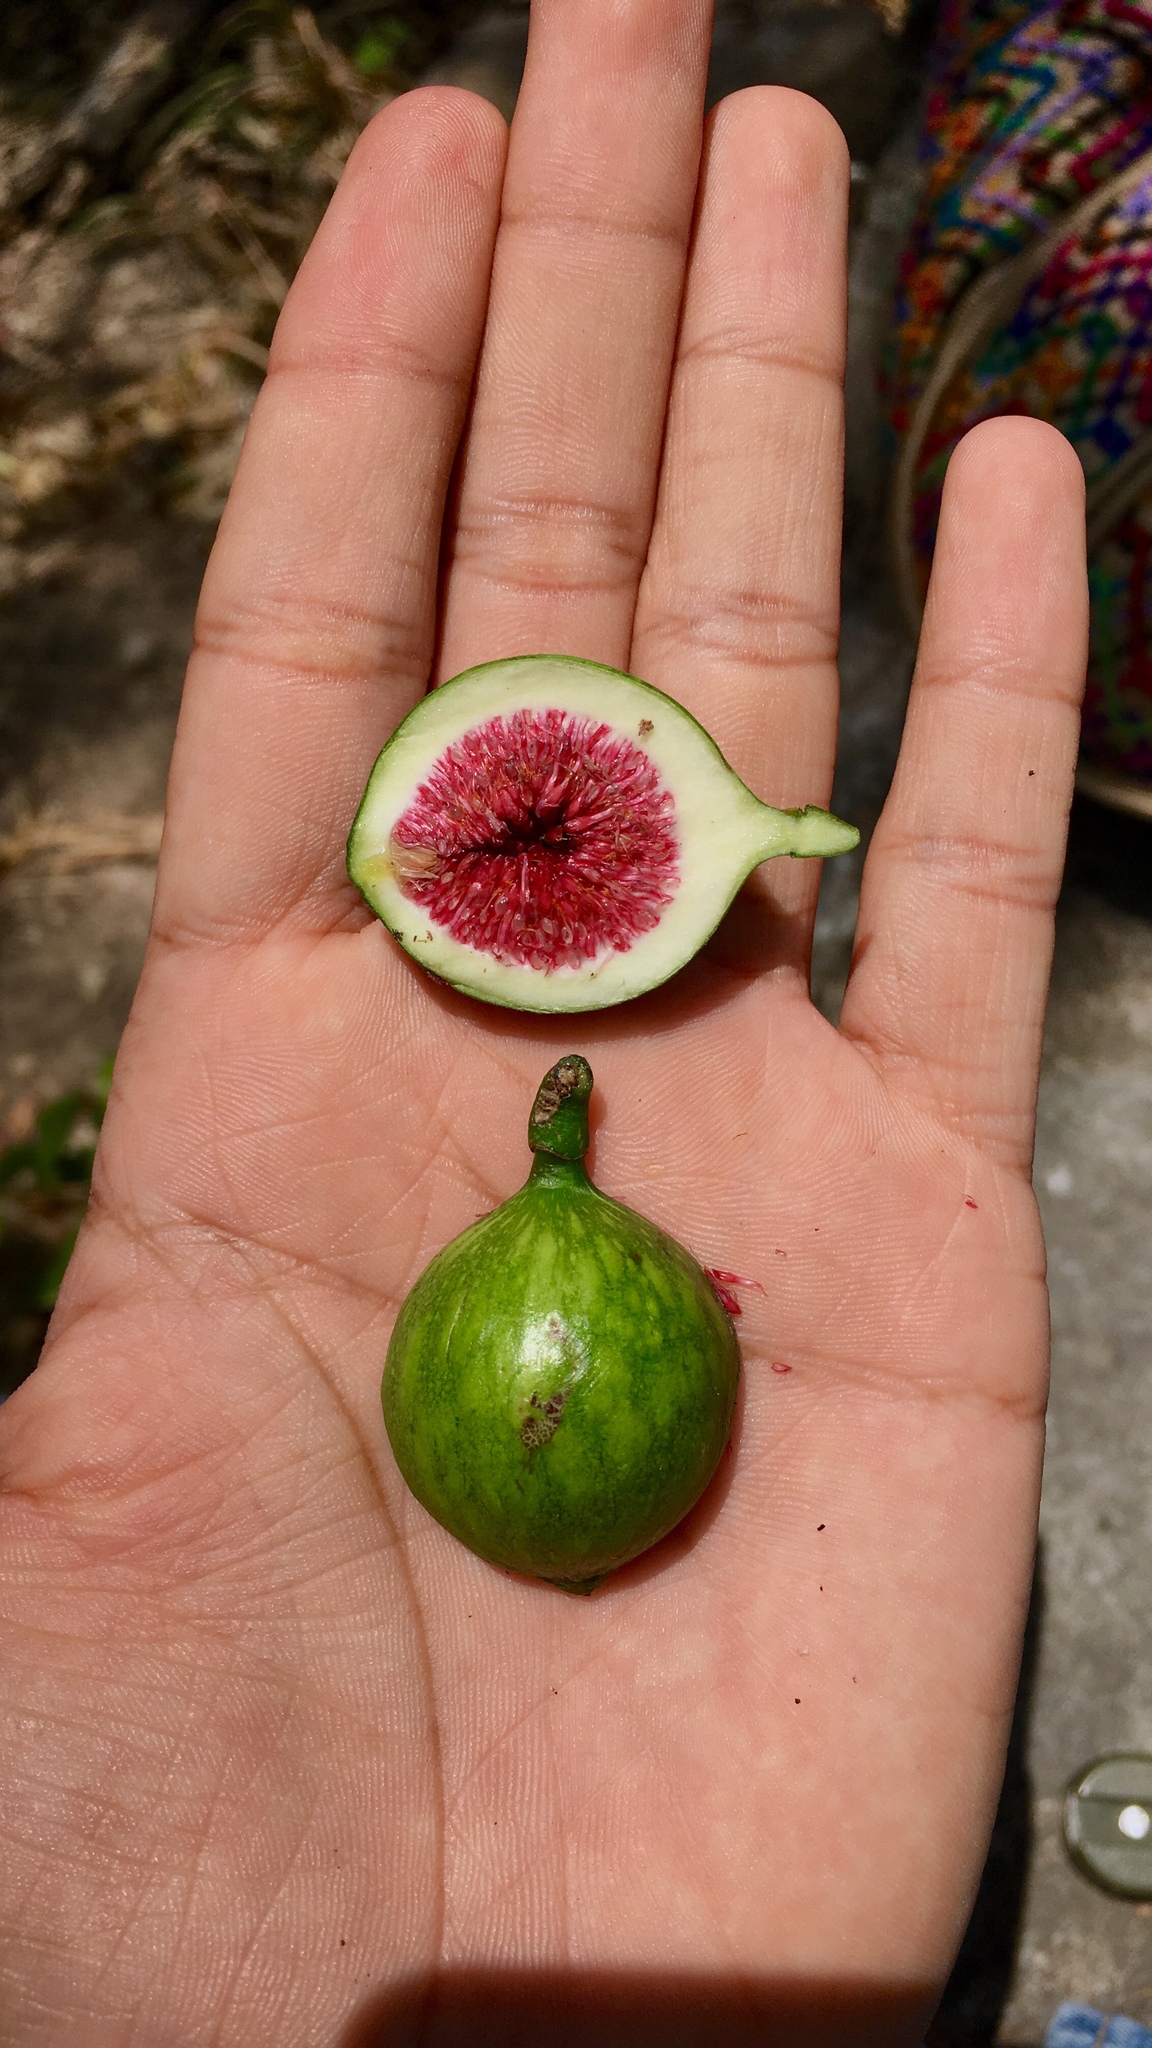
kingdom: Plantae
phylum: Tracheophyta
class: Magnoliopsida
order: Rosales
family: Moraceae
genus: Ficus
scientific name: Ficus insipida
